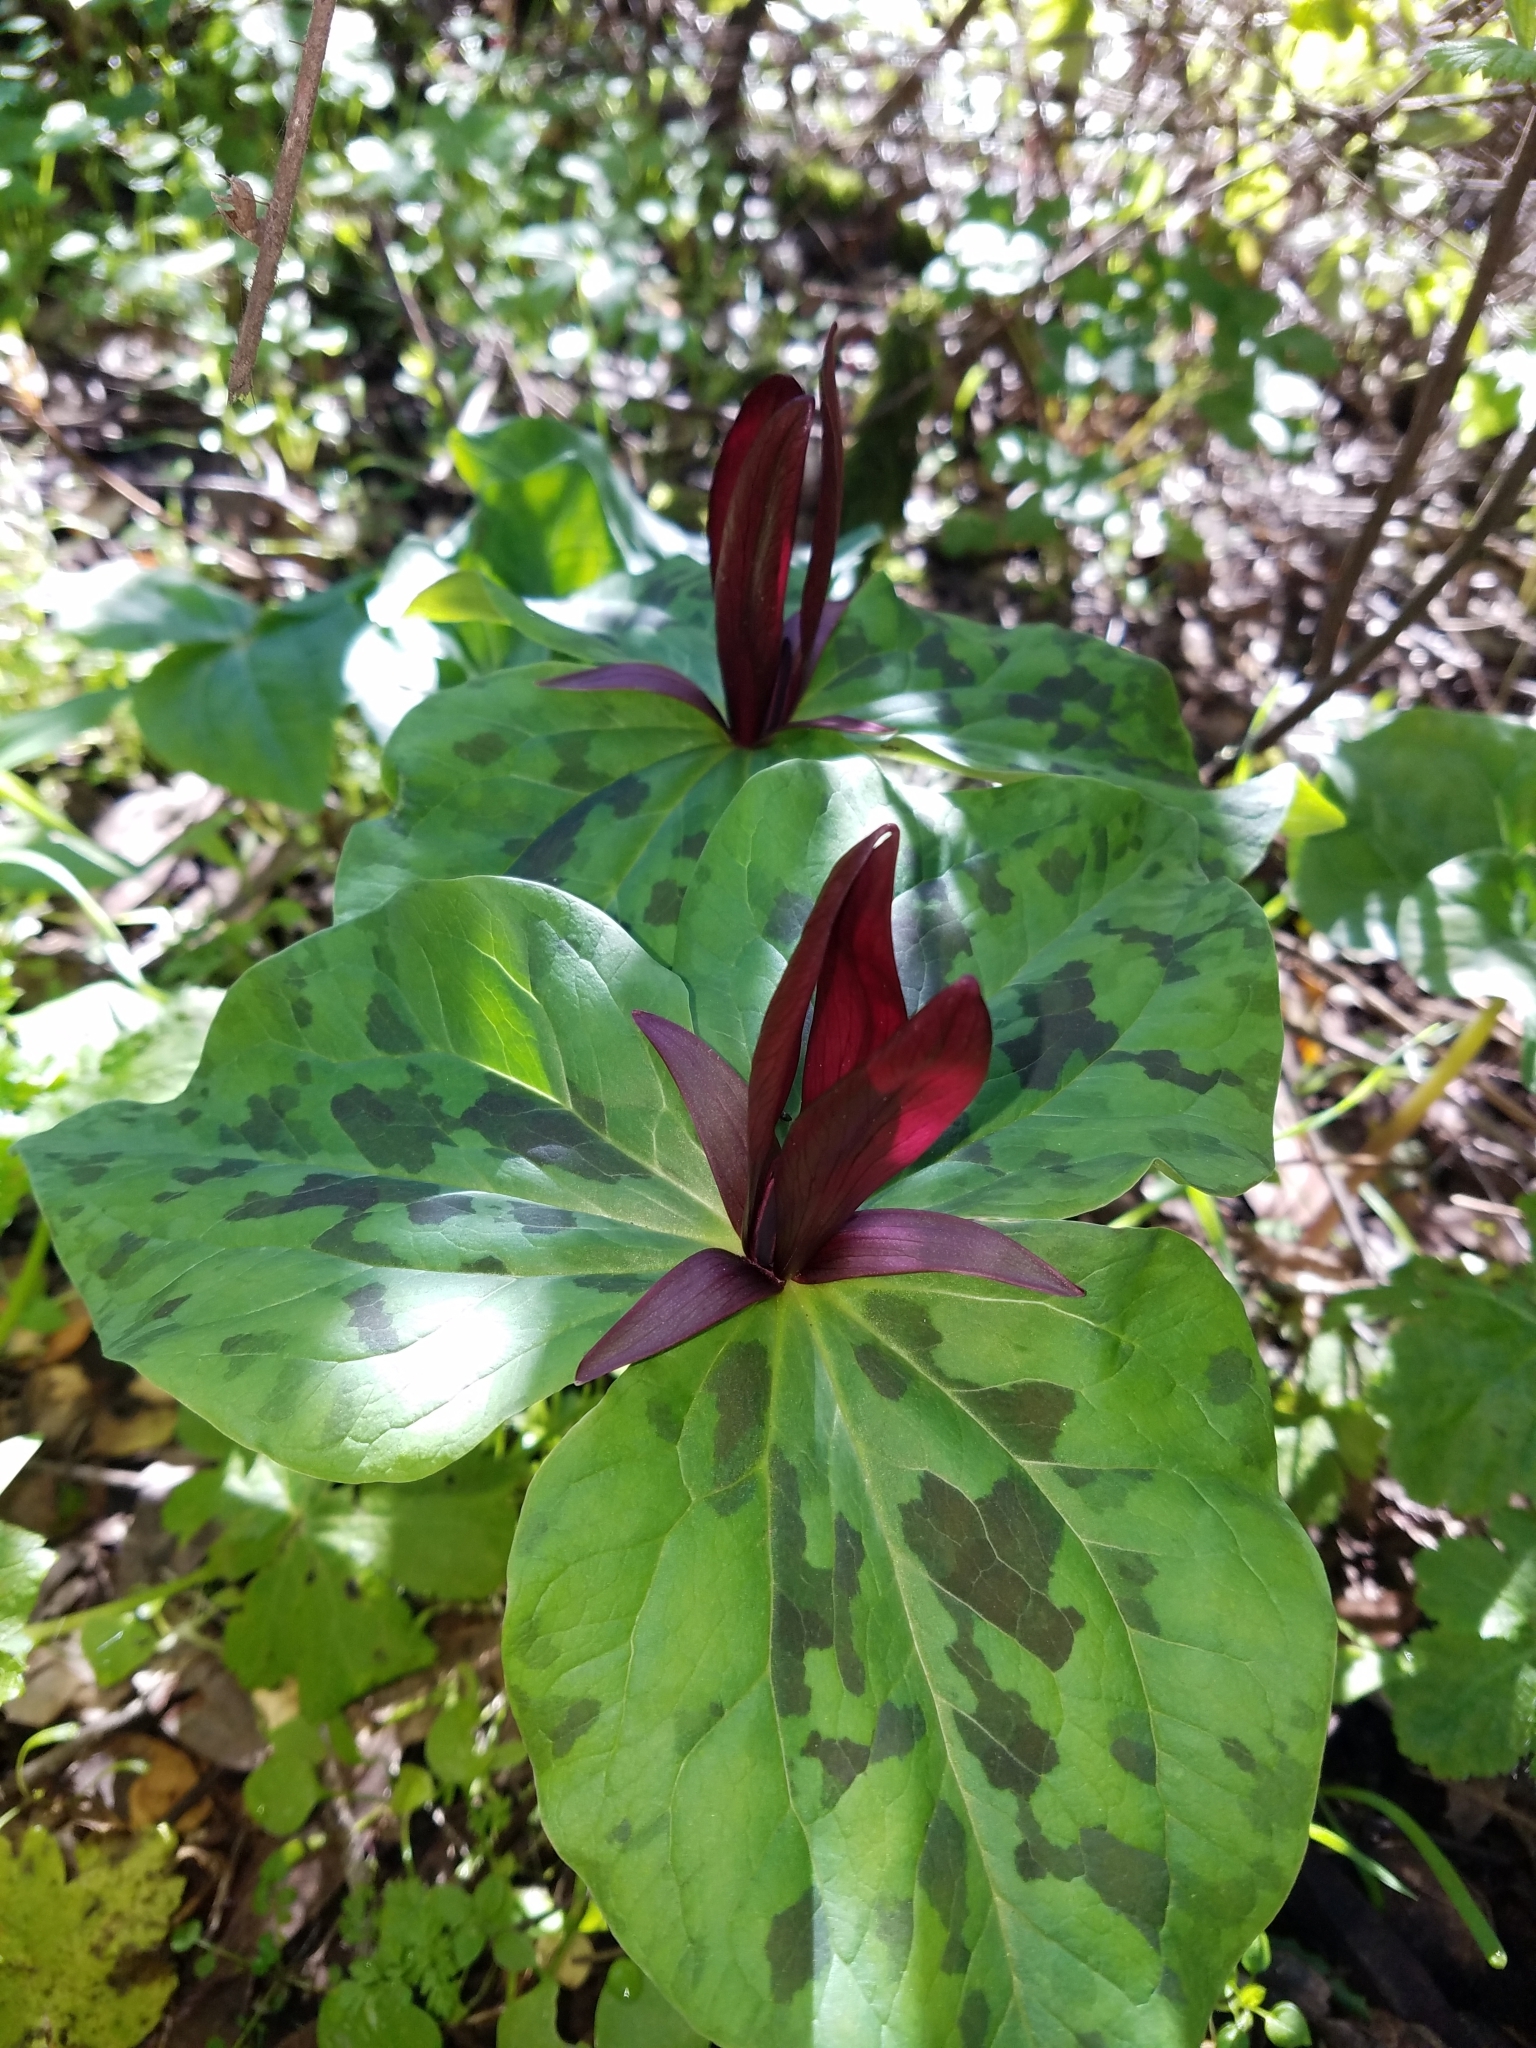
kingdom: Plantae
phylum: Tracheophyta
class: Liliopsida
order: Liliales
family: Melanthiaceae
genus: Trillium
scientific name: Trillium chloropetalum
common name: Giant trillium
